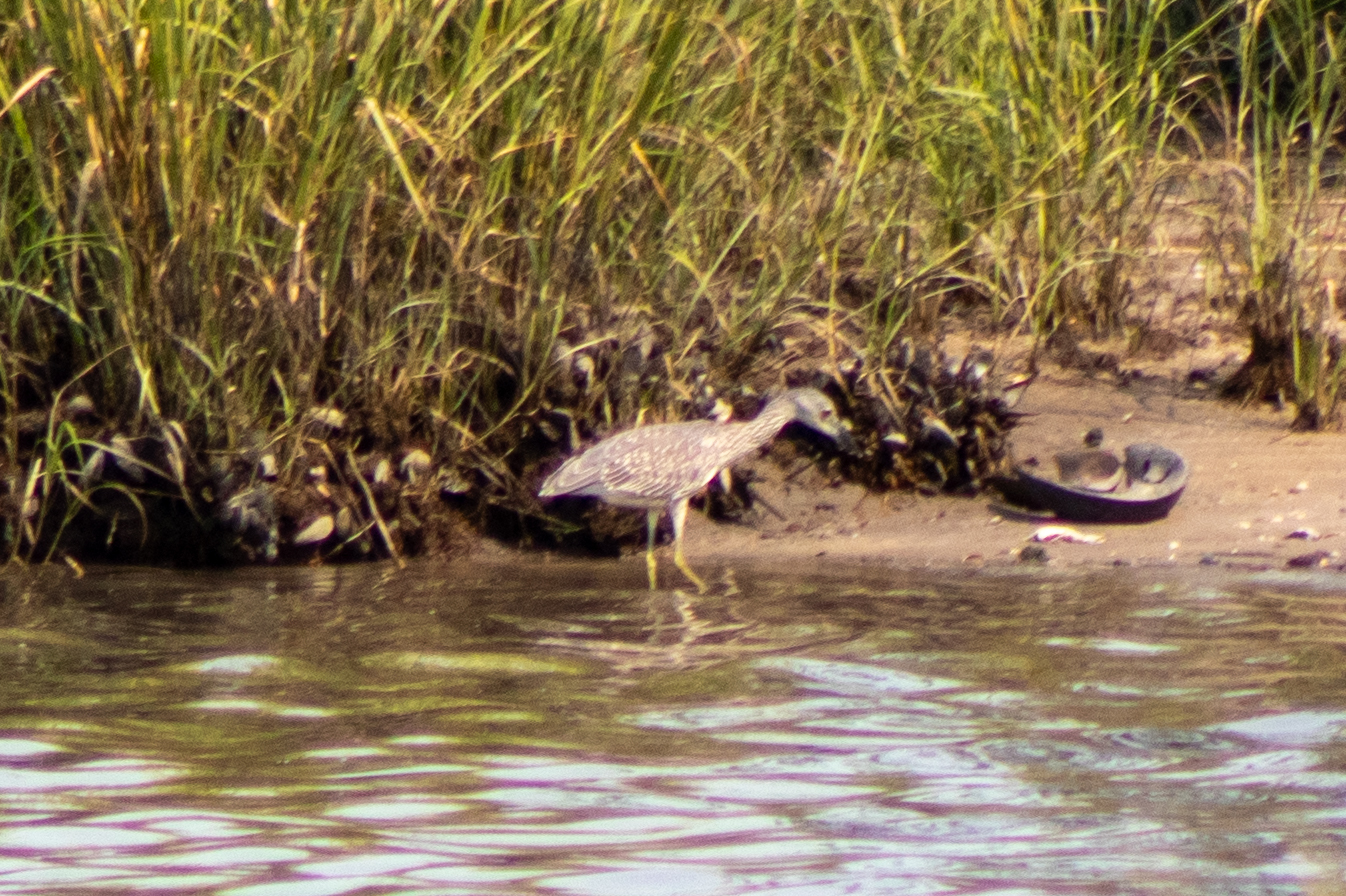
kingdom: Animalia
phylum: Chordata
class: Aves
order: Pelecaniformes
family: Ardeidae
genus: Nyctanassa
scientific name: Nyctanassa violacea
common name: Yellow-crowned night heron
